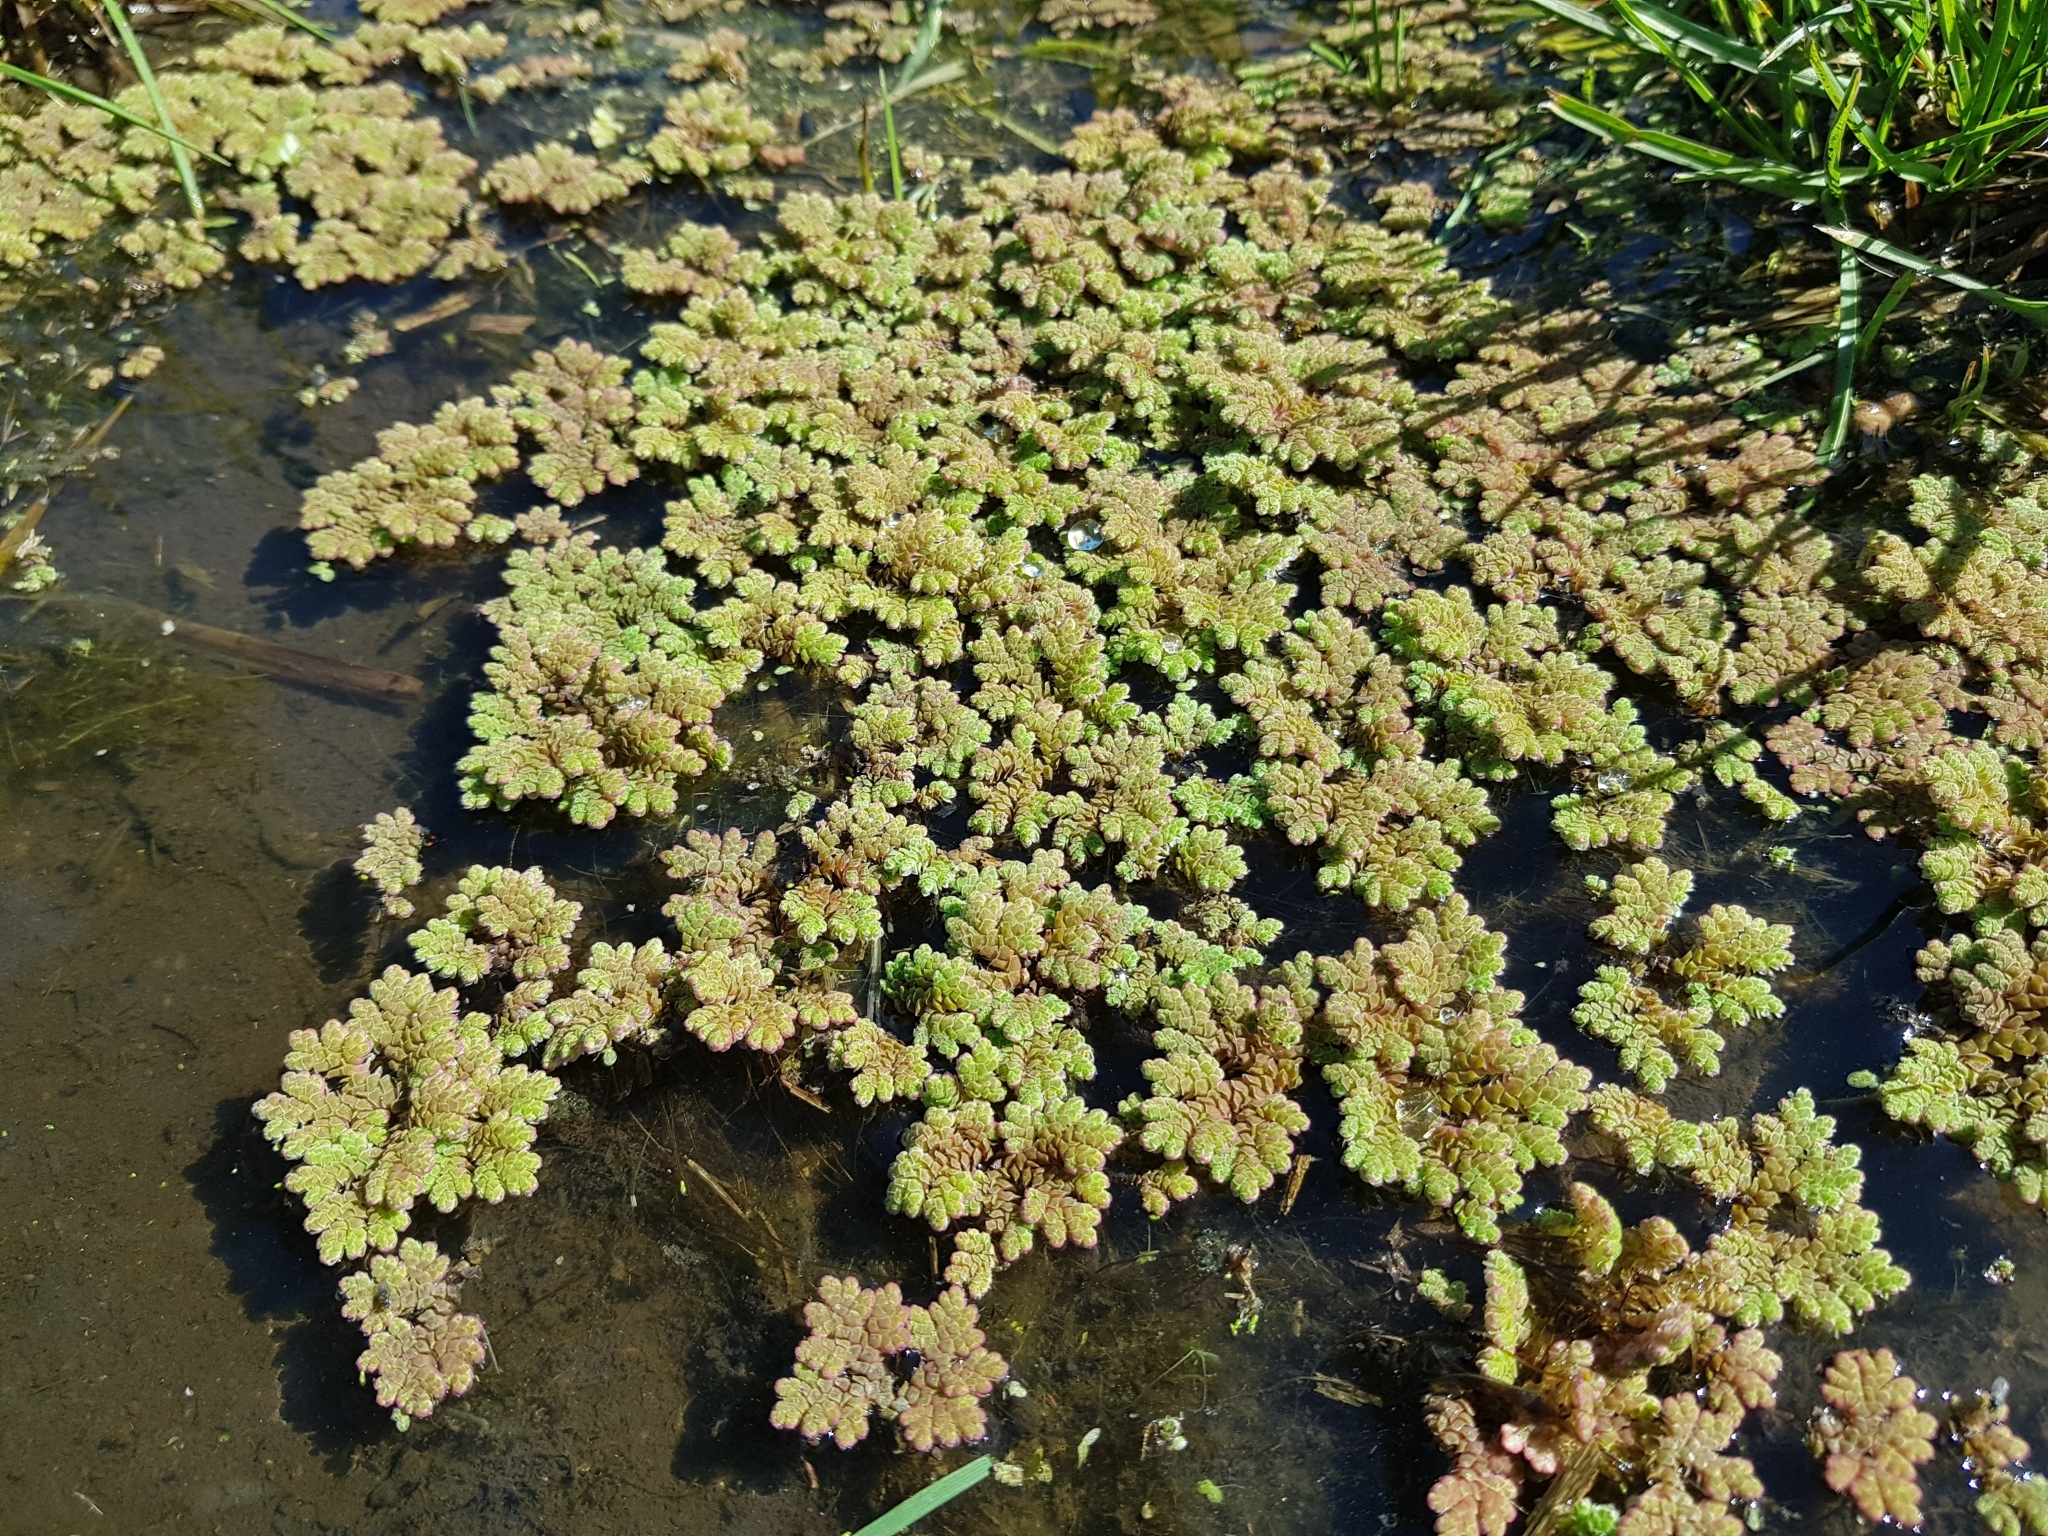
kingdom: Plantae
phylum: Tracheophyta
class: Polypodiopsida
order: Salviniales
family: Salviniaceae
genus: Azolla
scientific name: Azolla rubra
